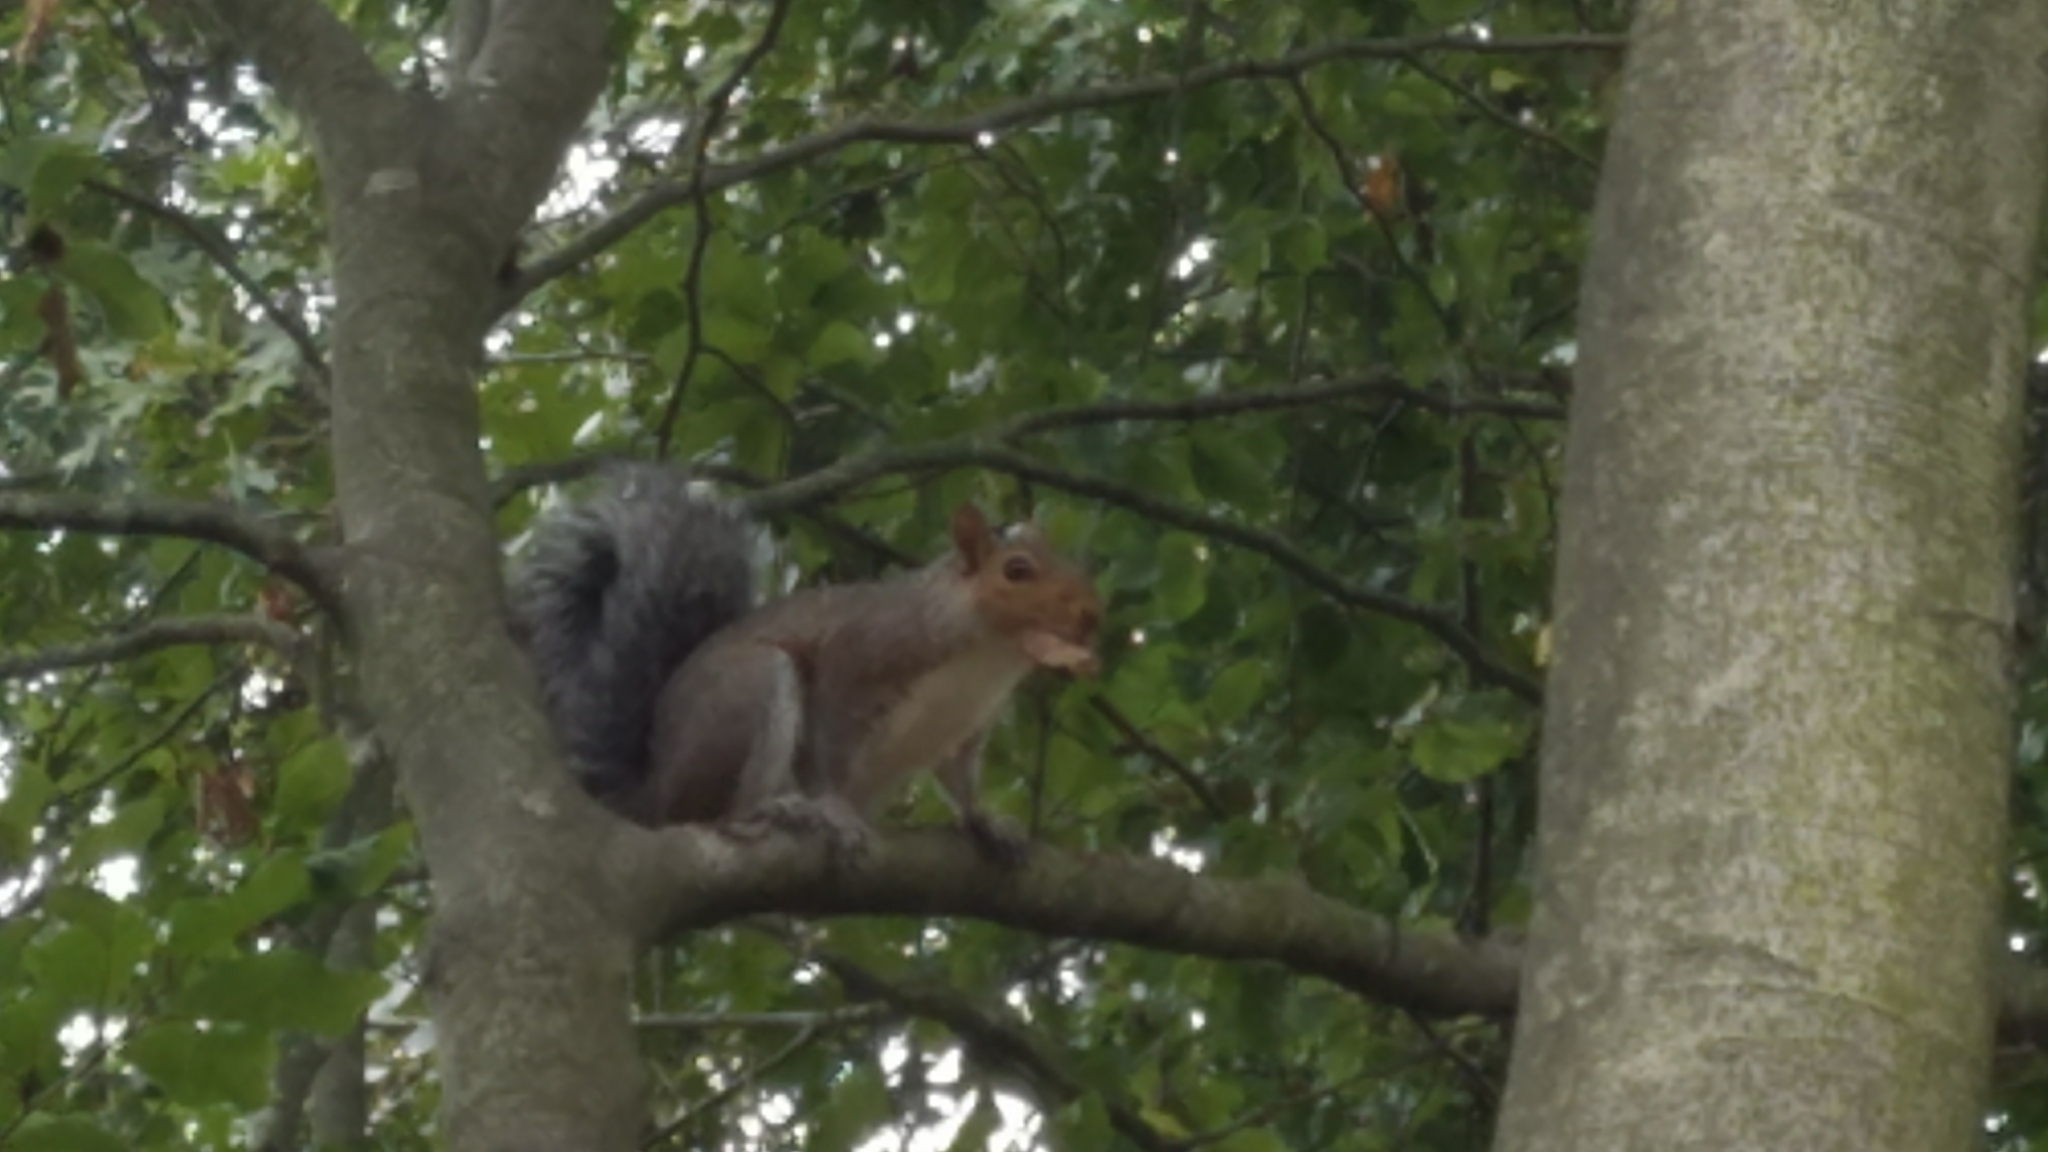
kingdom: Animalia
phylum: Chordata
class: Mammalia
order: Rodentia
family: Sciuridae
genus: Sciurus
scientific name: Sciurus carolinensis
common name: Eastern gray squirrel
